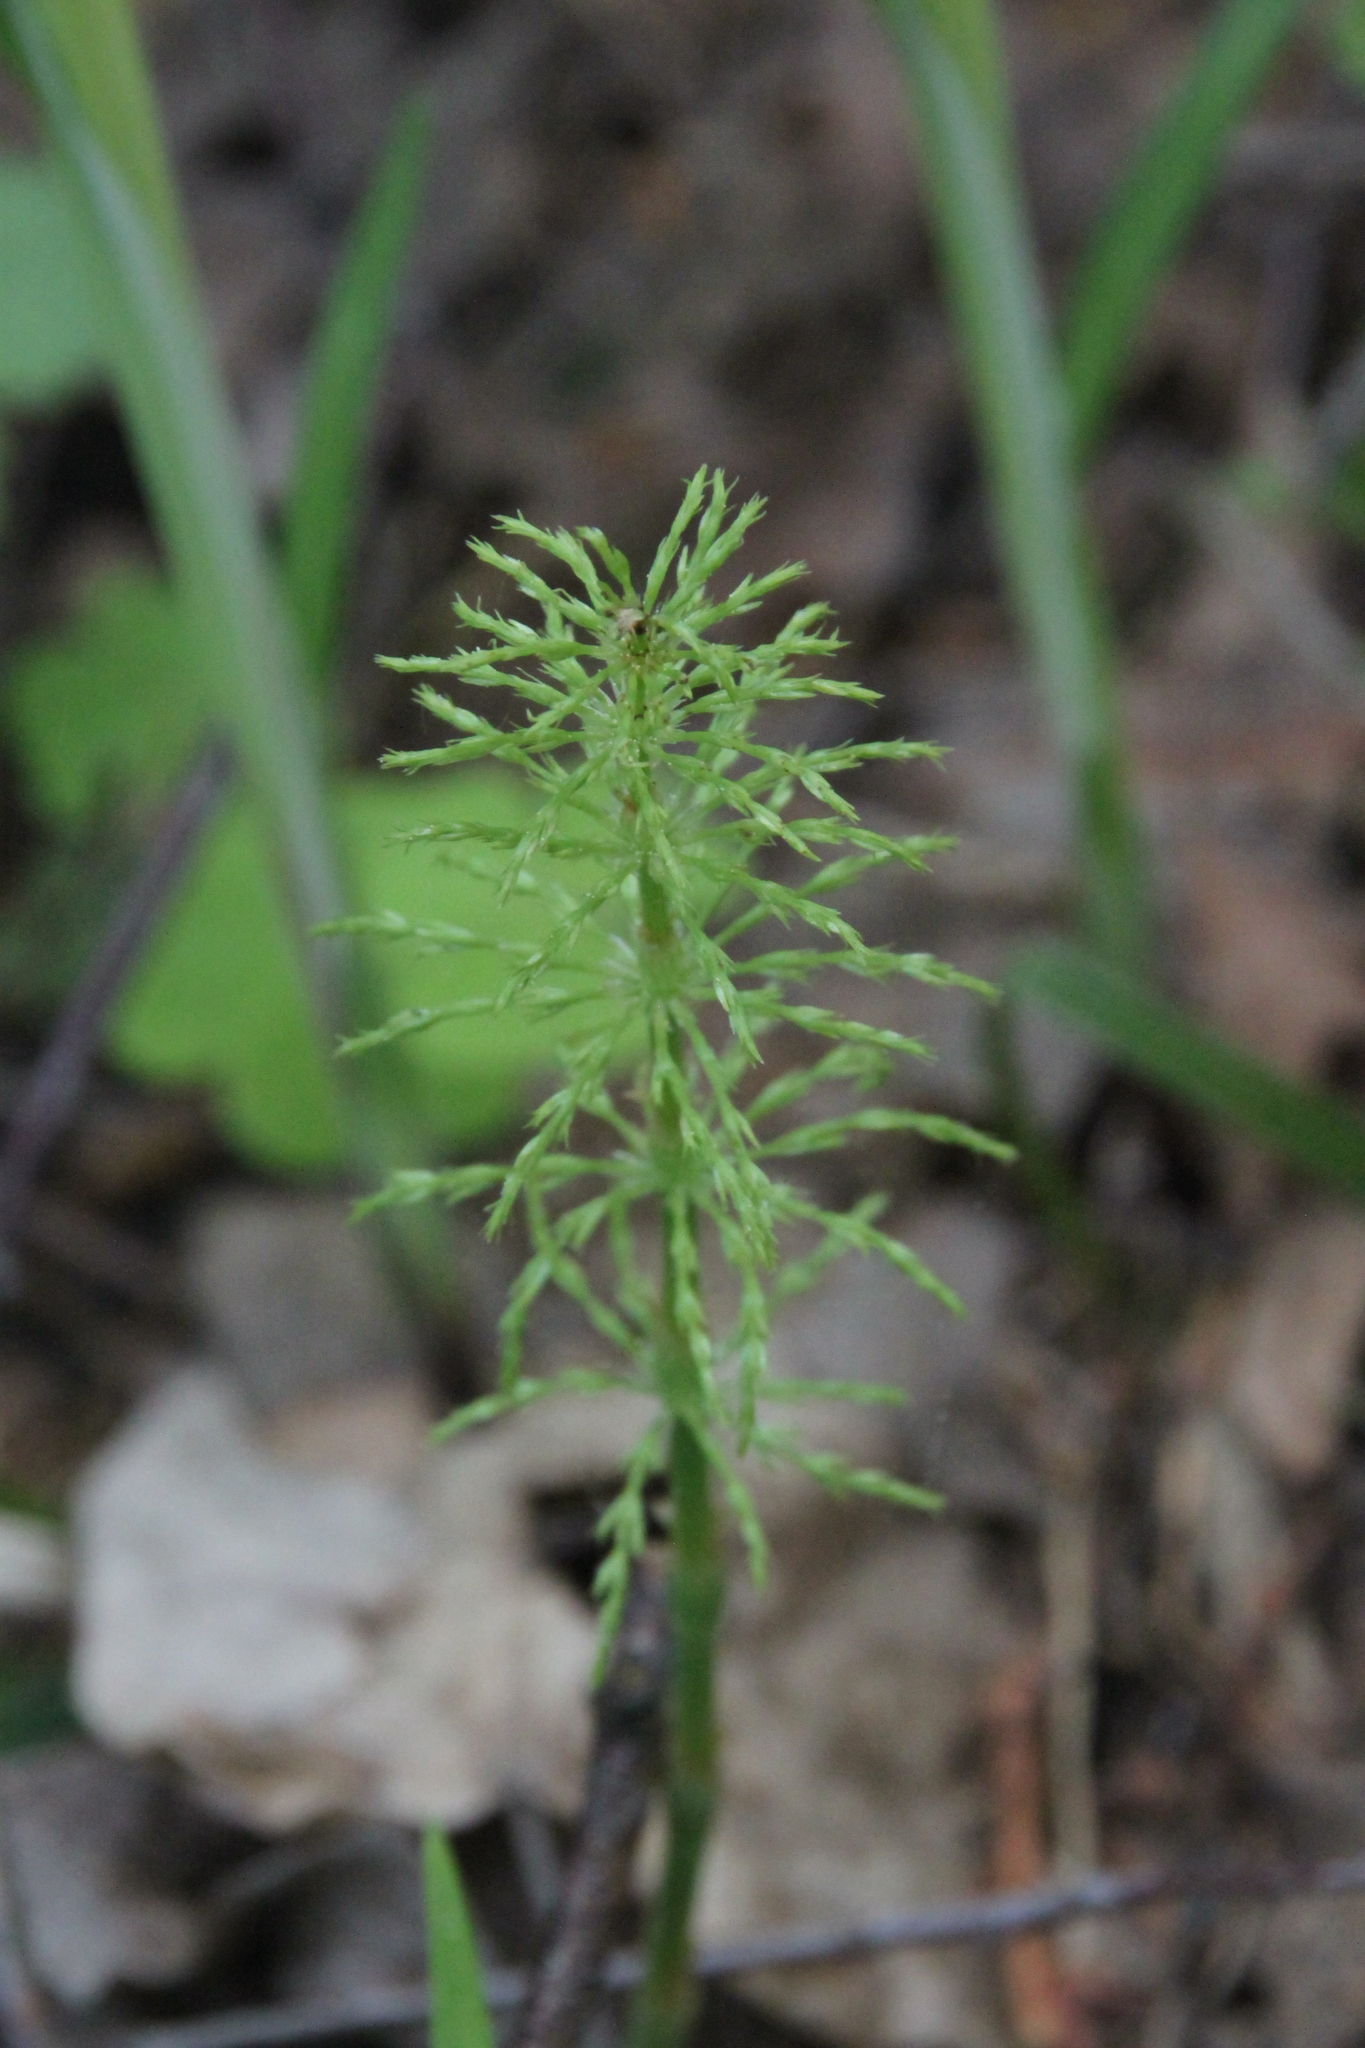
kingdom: Plantae
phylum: Tracheophyta
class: Polypodiopsida
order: Equisetales
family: Equisetaceae
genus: Equisetum
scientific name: Equisetum sylvaticum
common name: Wood horsetail
